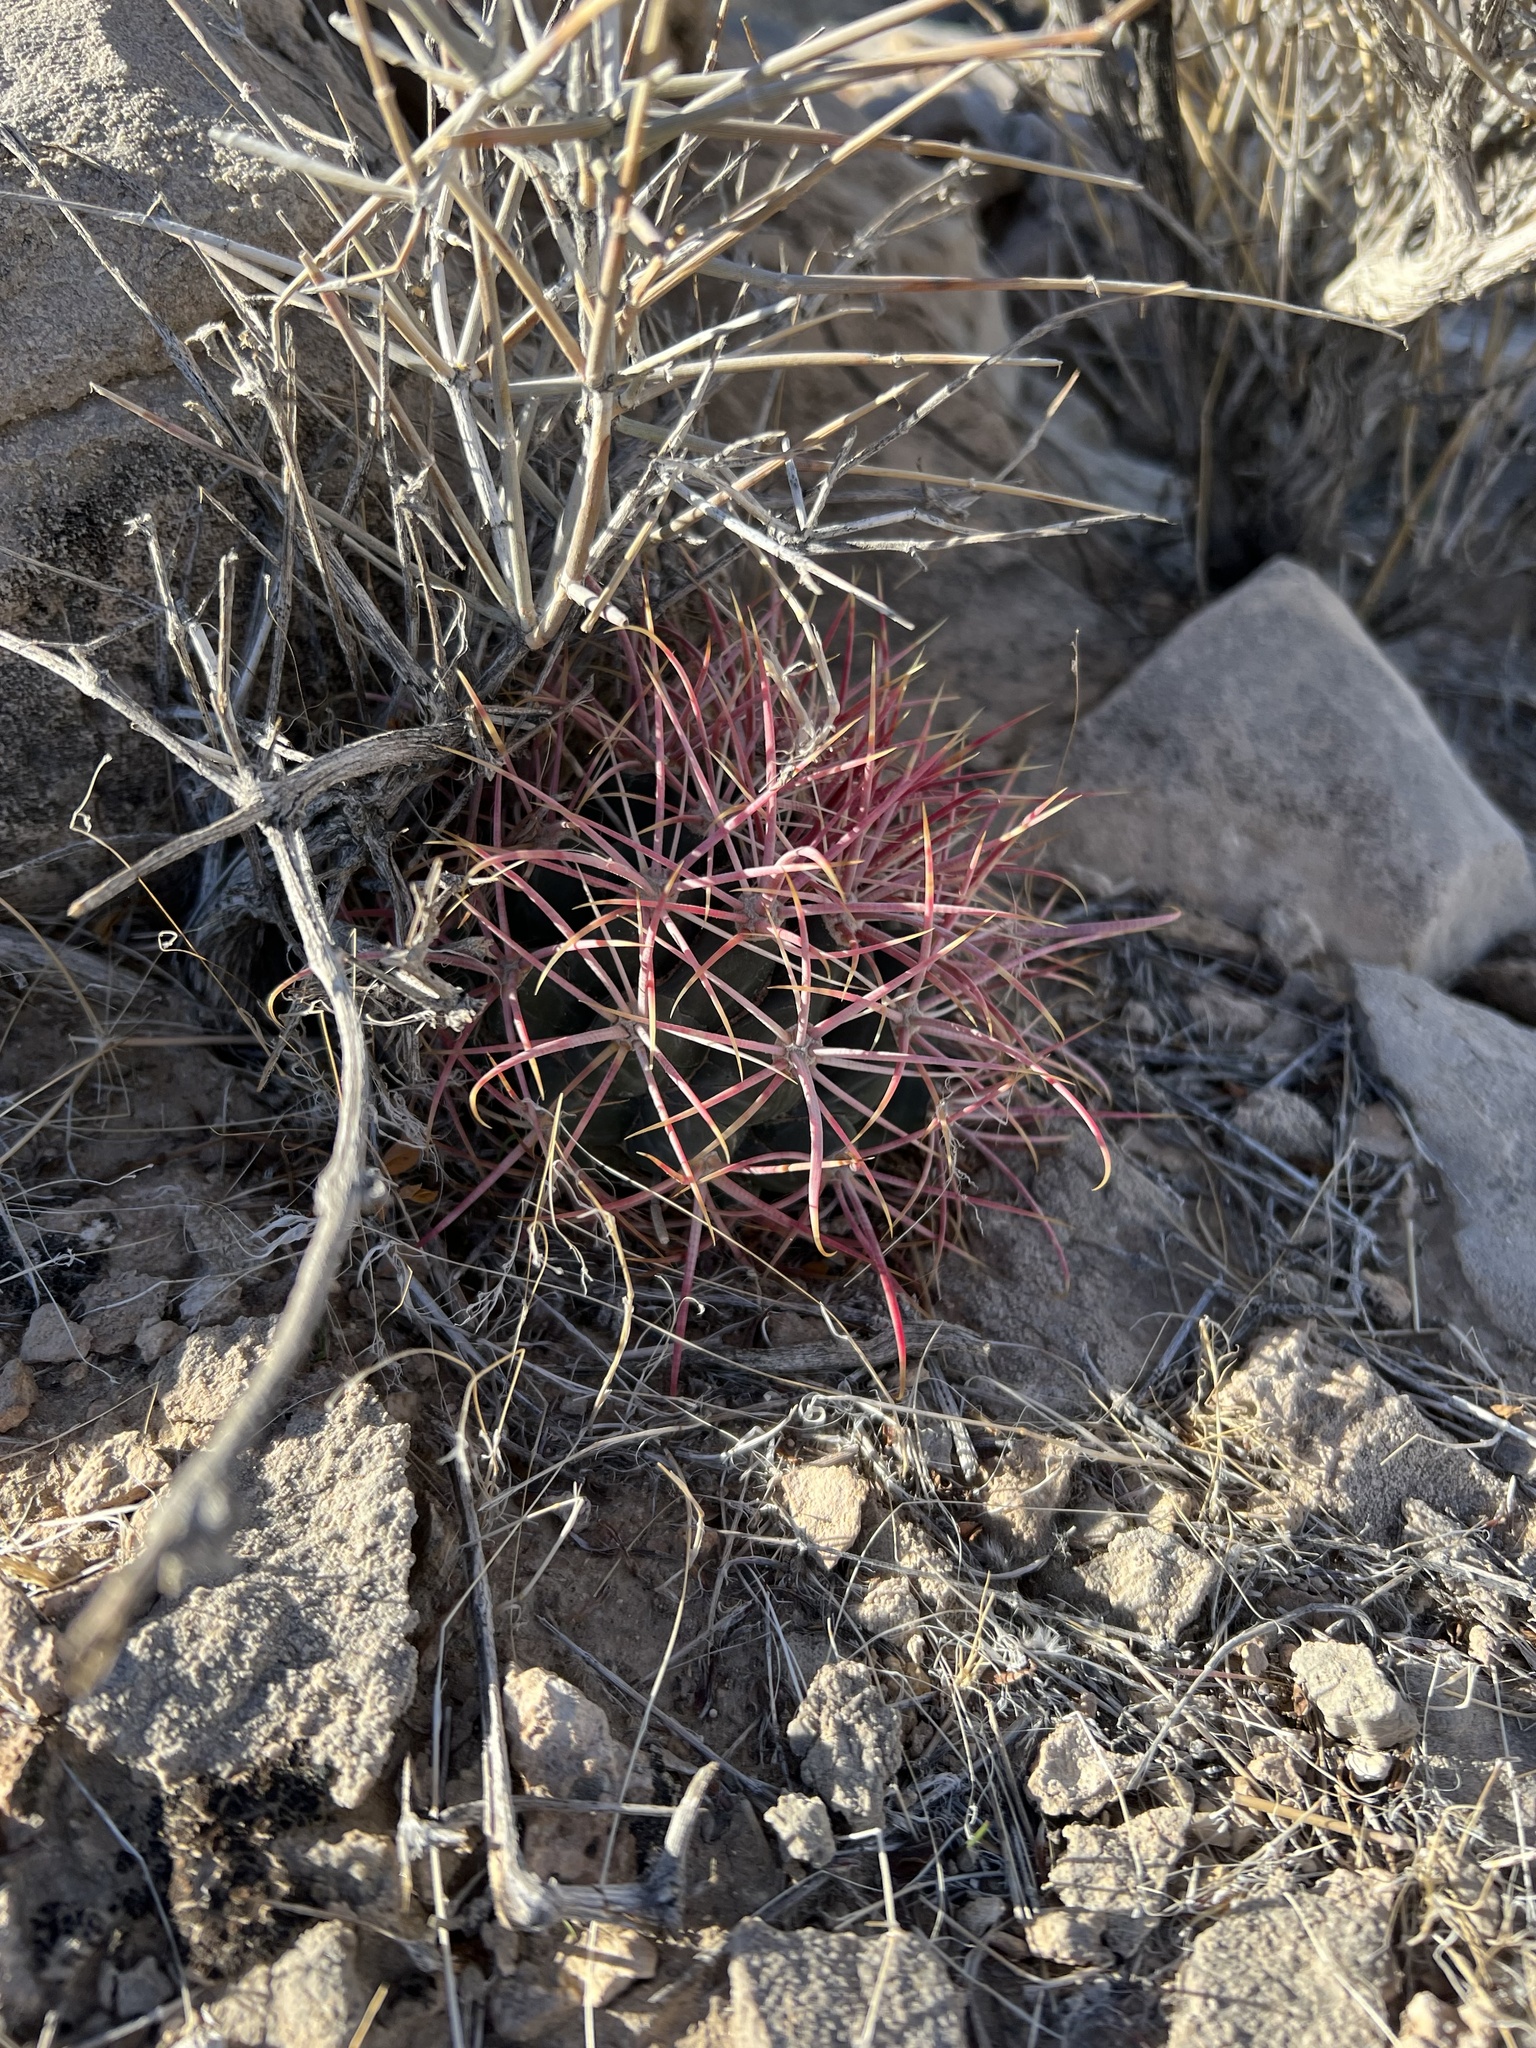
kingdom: Plantae
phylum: Tracheophyta
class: Magnoliopsida
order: Caryophyllales
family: Cactaceae
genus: Ferocactus
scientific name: Ferocactus cylindraceus
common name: California barrel cactus
